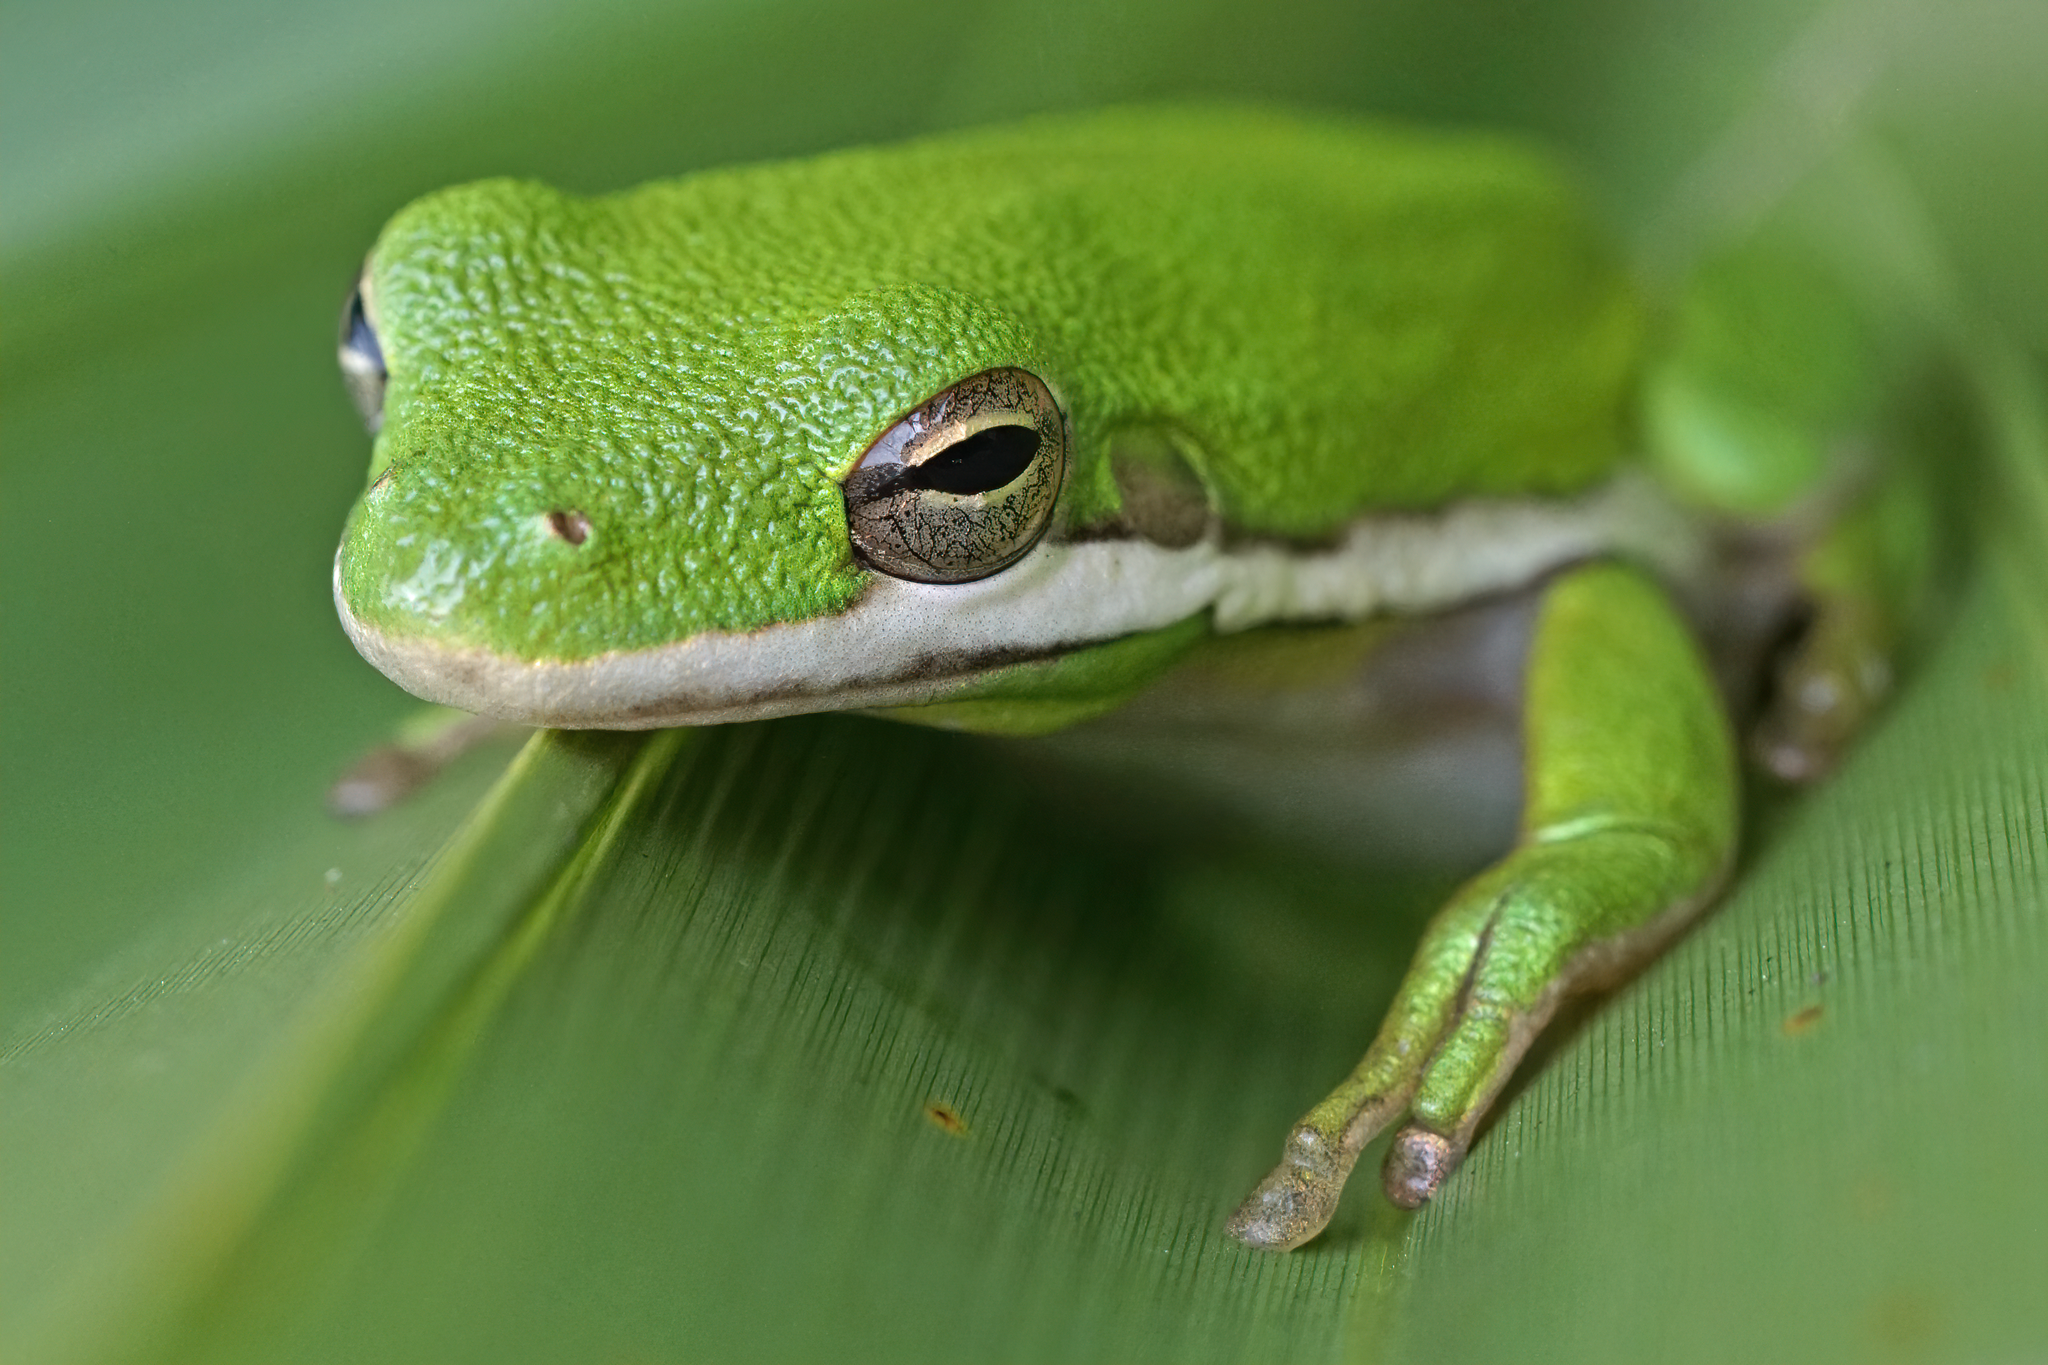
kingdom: Animalia
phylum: Chordata
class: Amphibia
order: Anura
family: Hylidae
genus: Dryophytes
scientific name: Dryophytes cinereus
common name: Green treefrog
